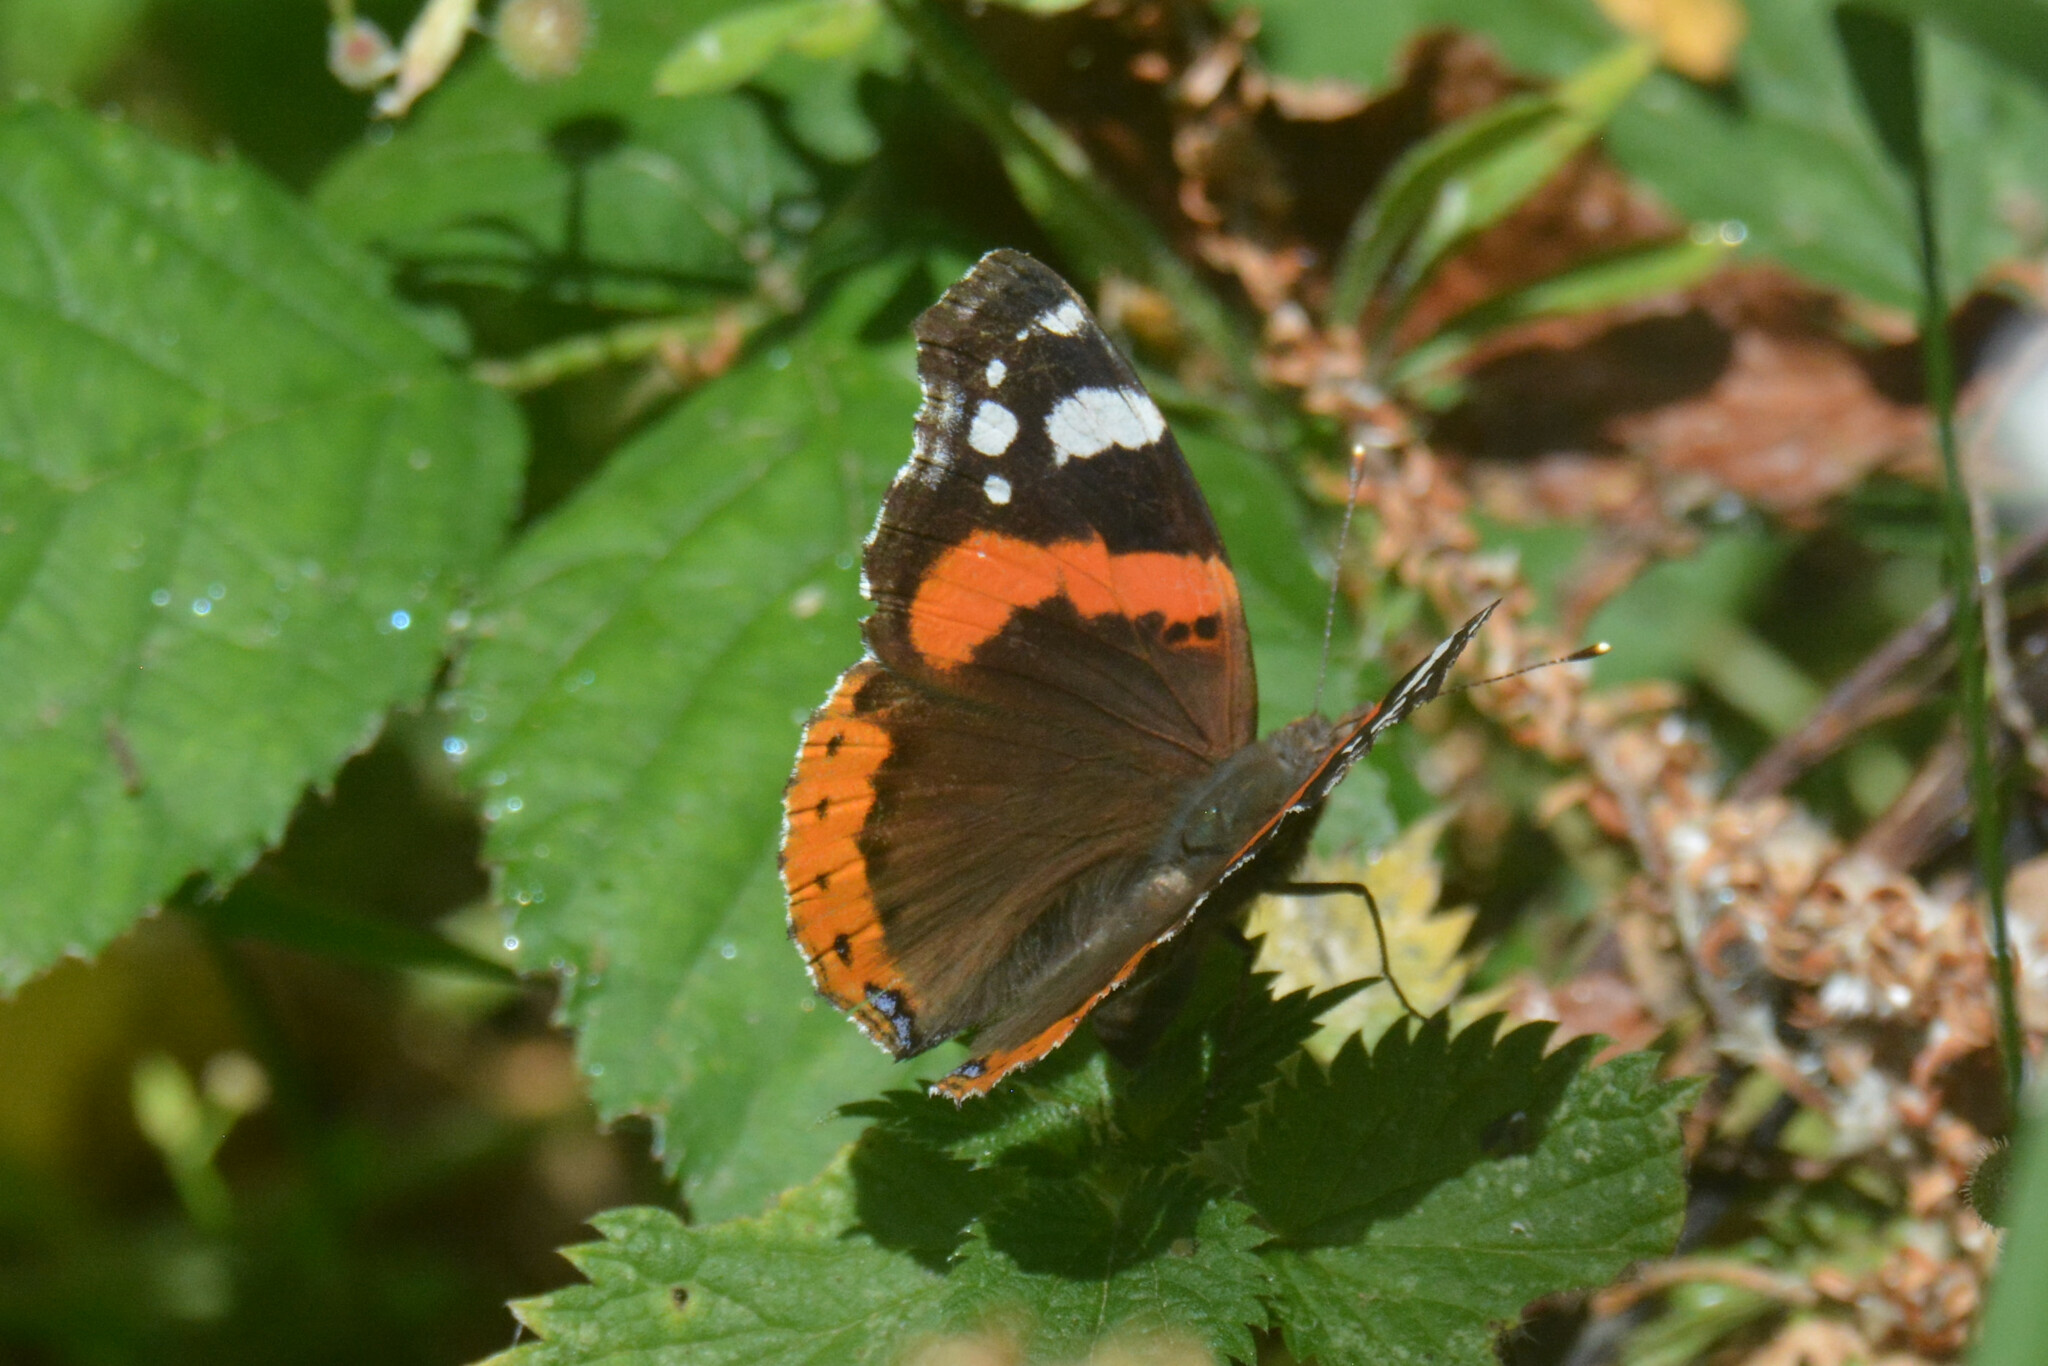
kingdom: Animalia
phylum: Arthropoda
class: Insecta
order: Lepidoptera
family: Nymphalidae
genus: Vanessa
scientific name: Vanessa atalanta
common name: Red admiral
